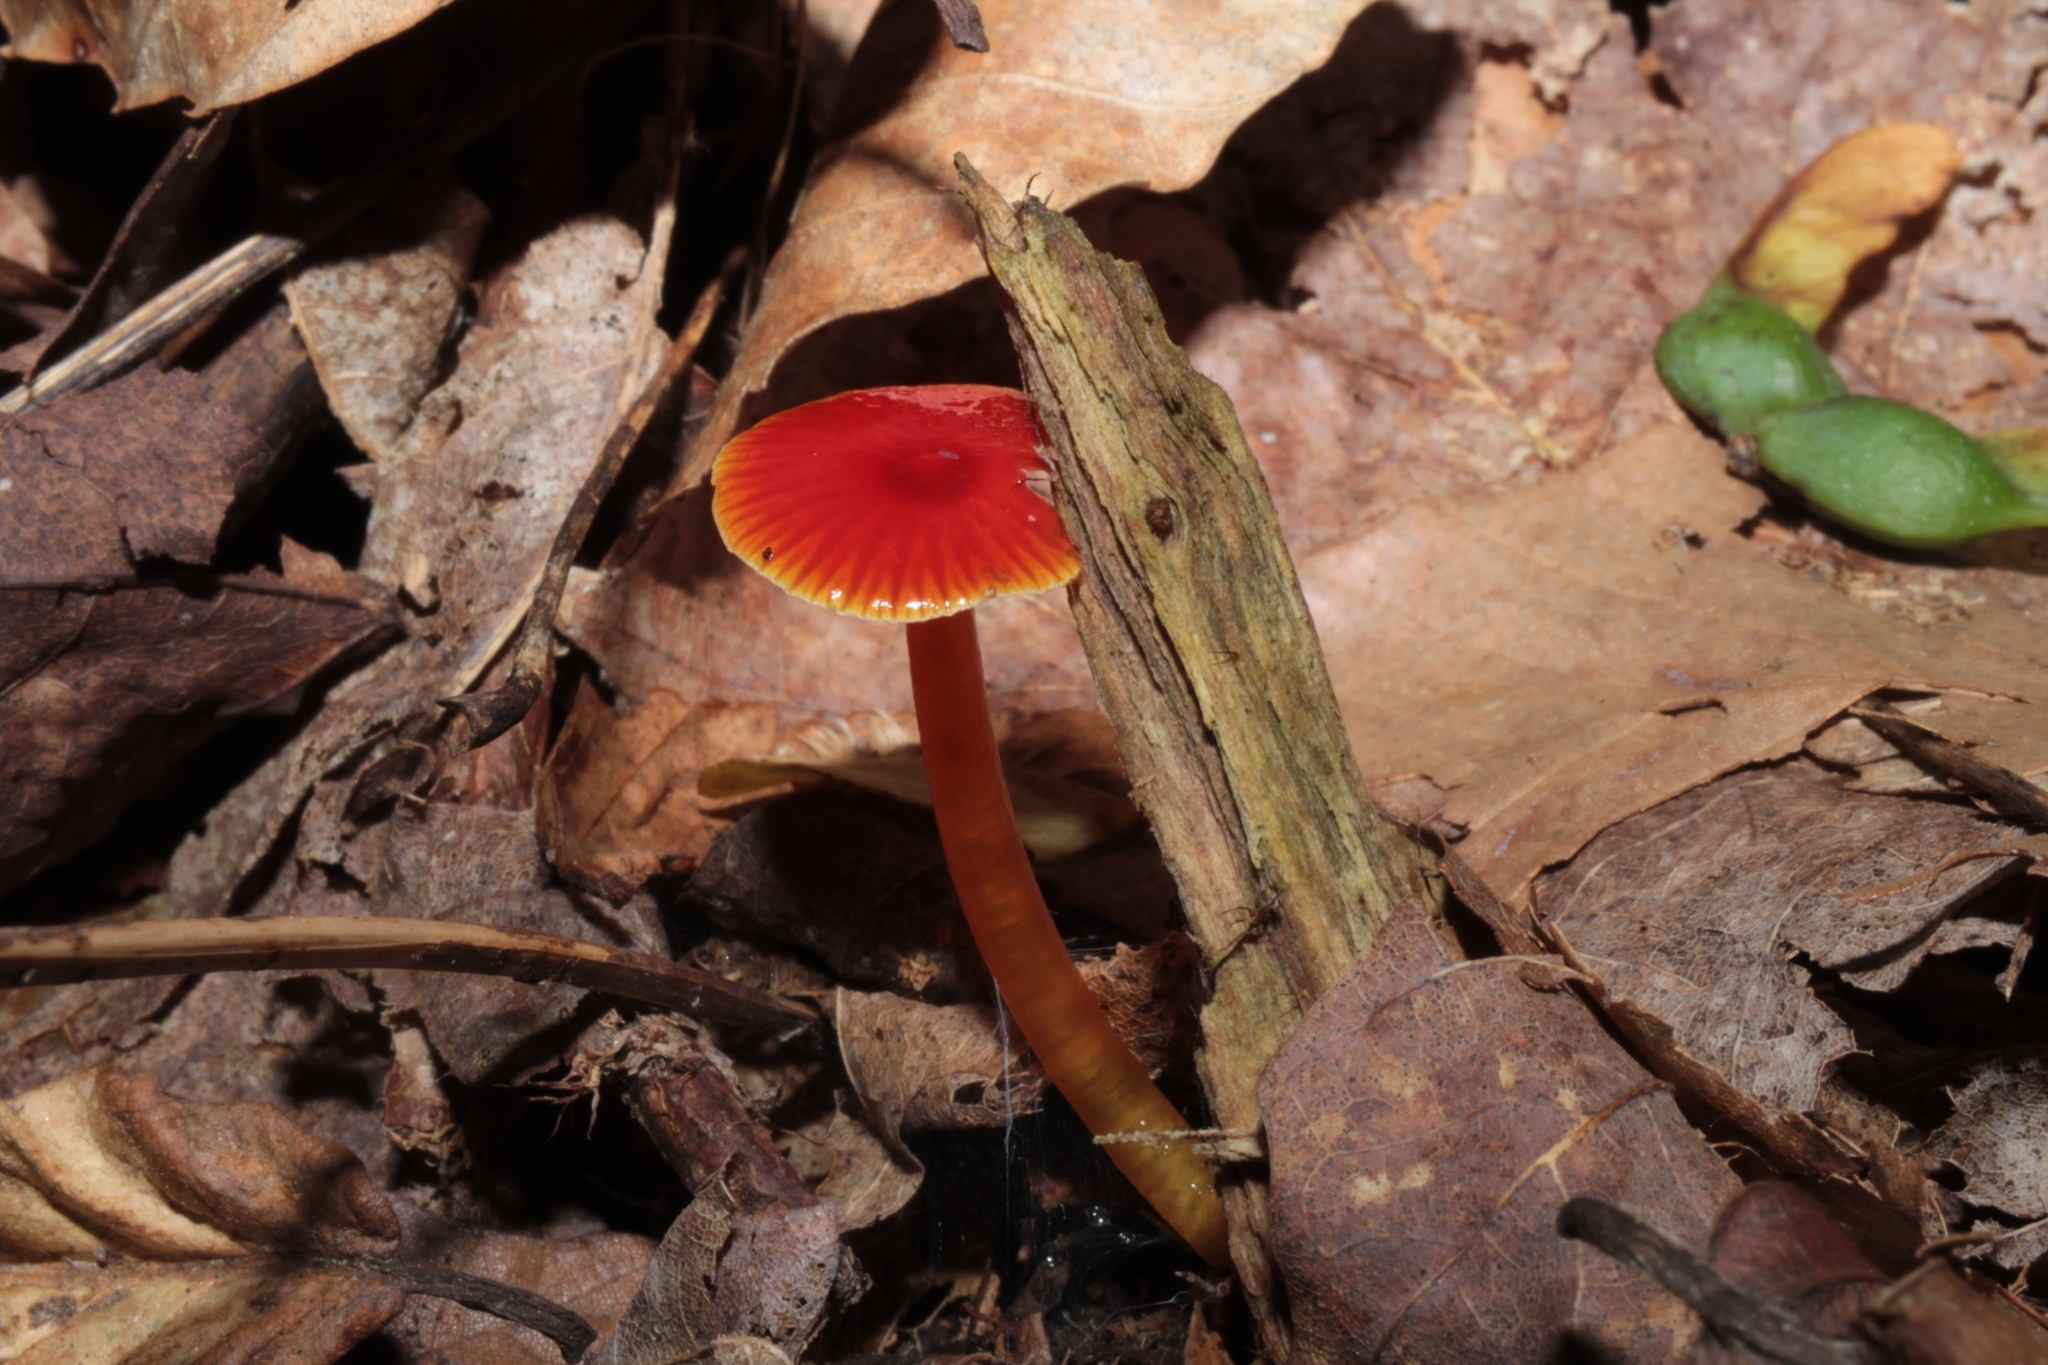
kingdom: Fungi
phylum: Basidiomycota
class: Agaricomycetes
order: Agaricales
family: Hygrophoraceae
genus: Hygrocybe
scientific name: Hygrocybe glutinipes
